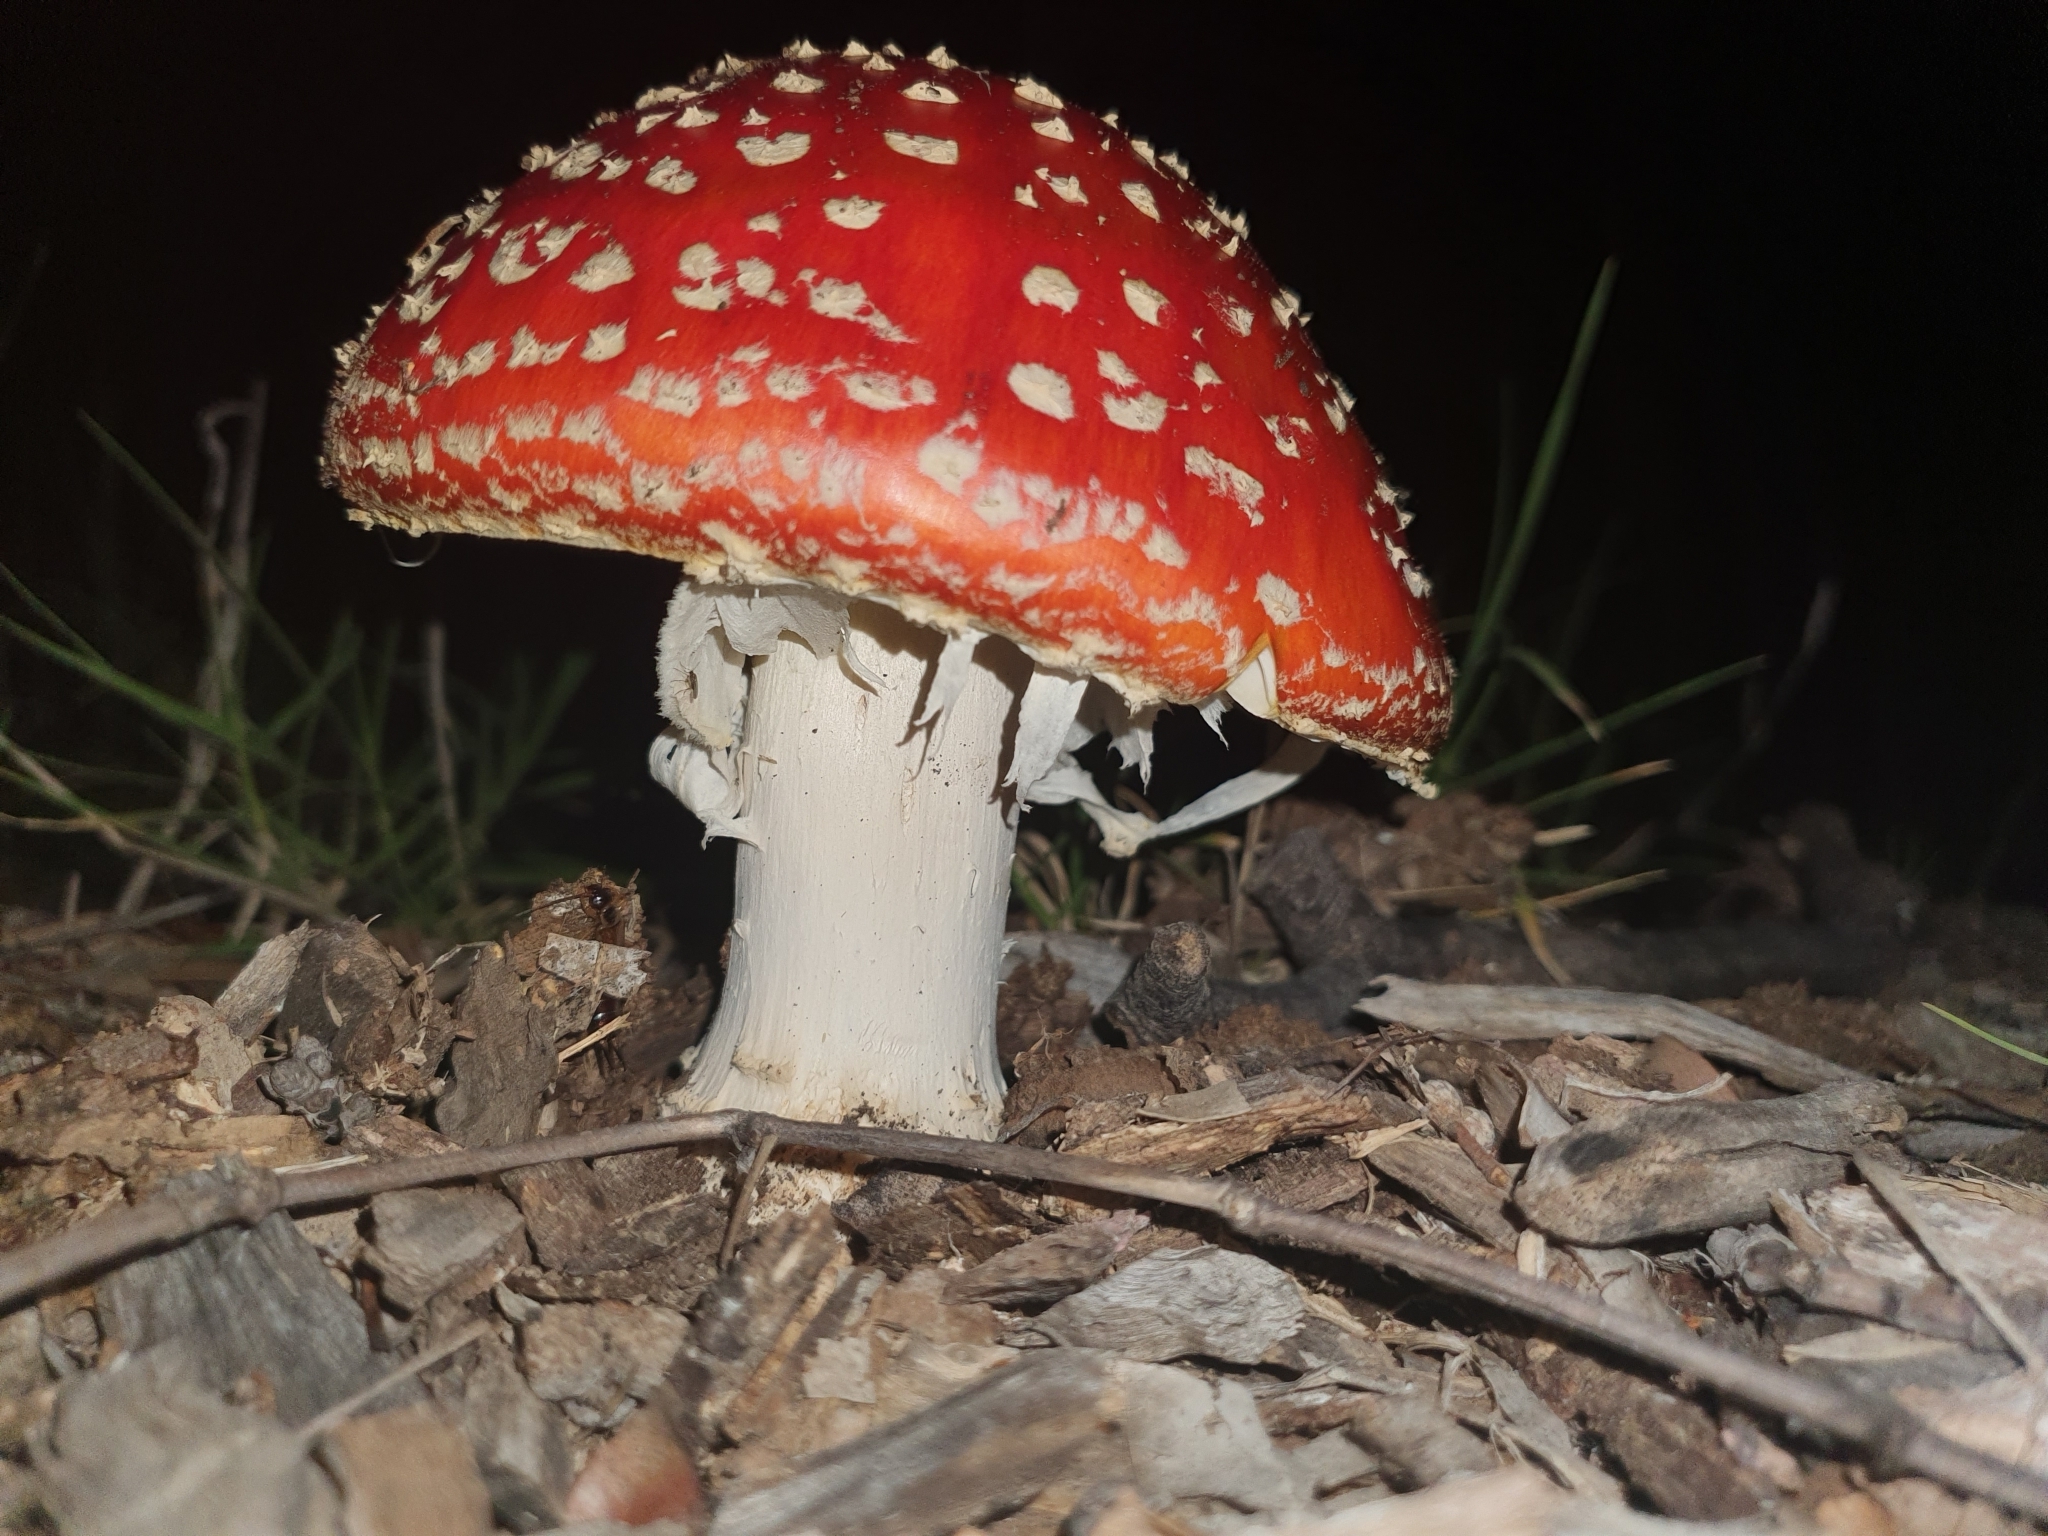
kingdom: Fungi
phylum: Basidiomycota
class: Agaricomycetes
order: Agaricales
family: Amanitaceae
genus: Amanita
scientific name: Amanita muscaria
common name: Fly agaric
